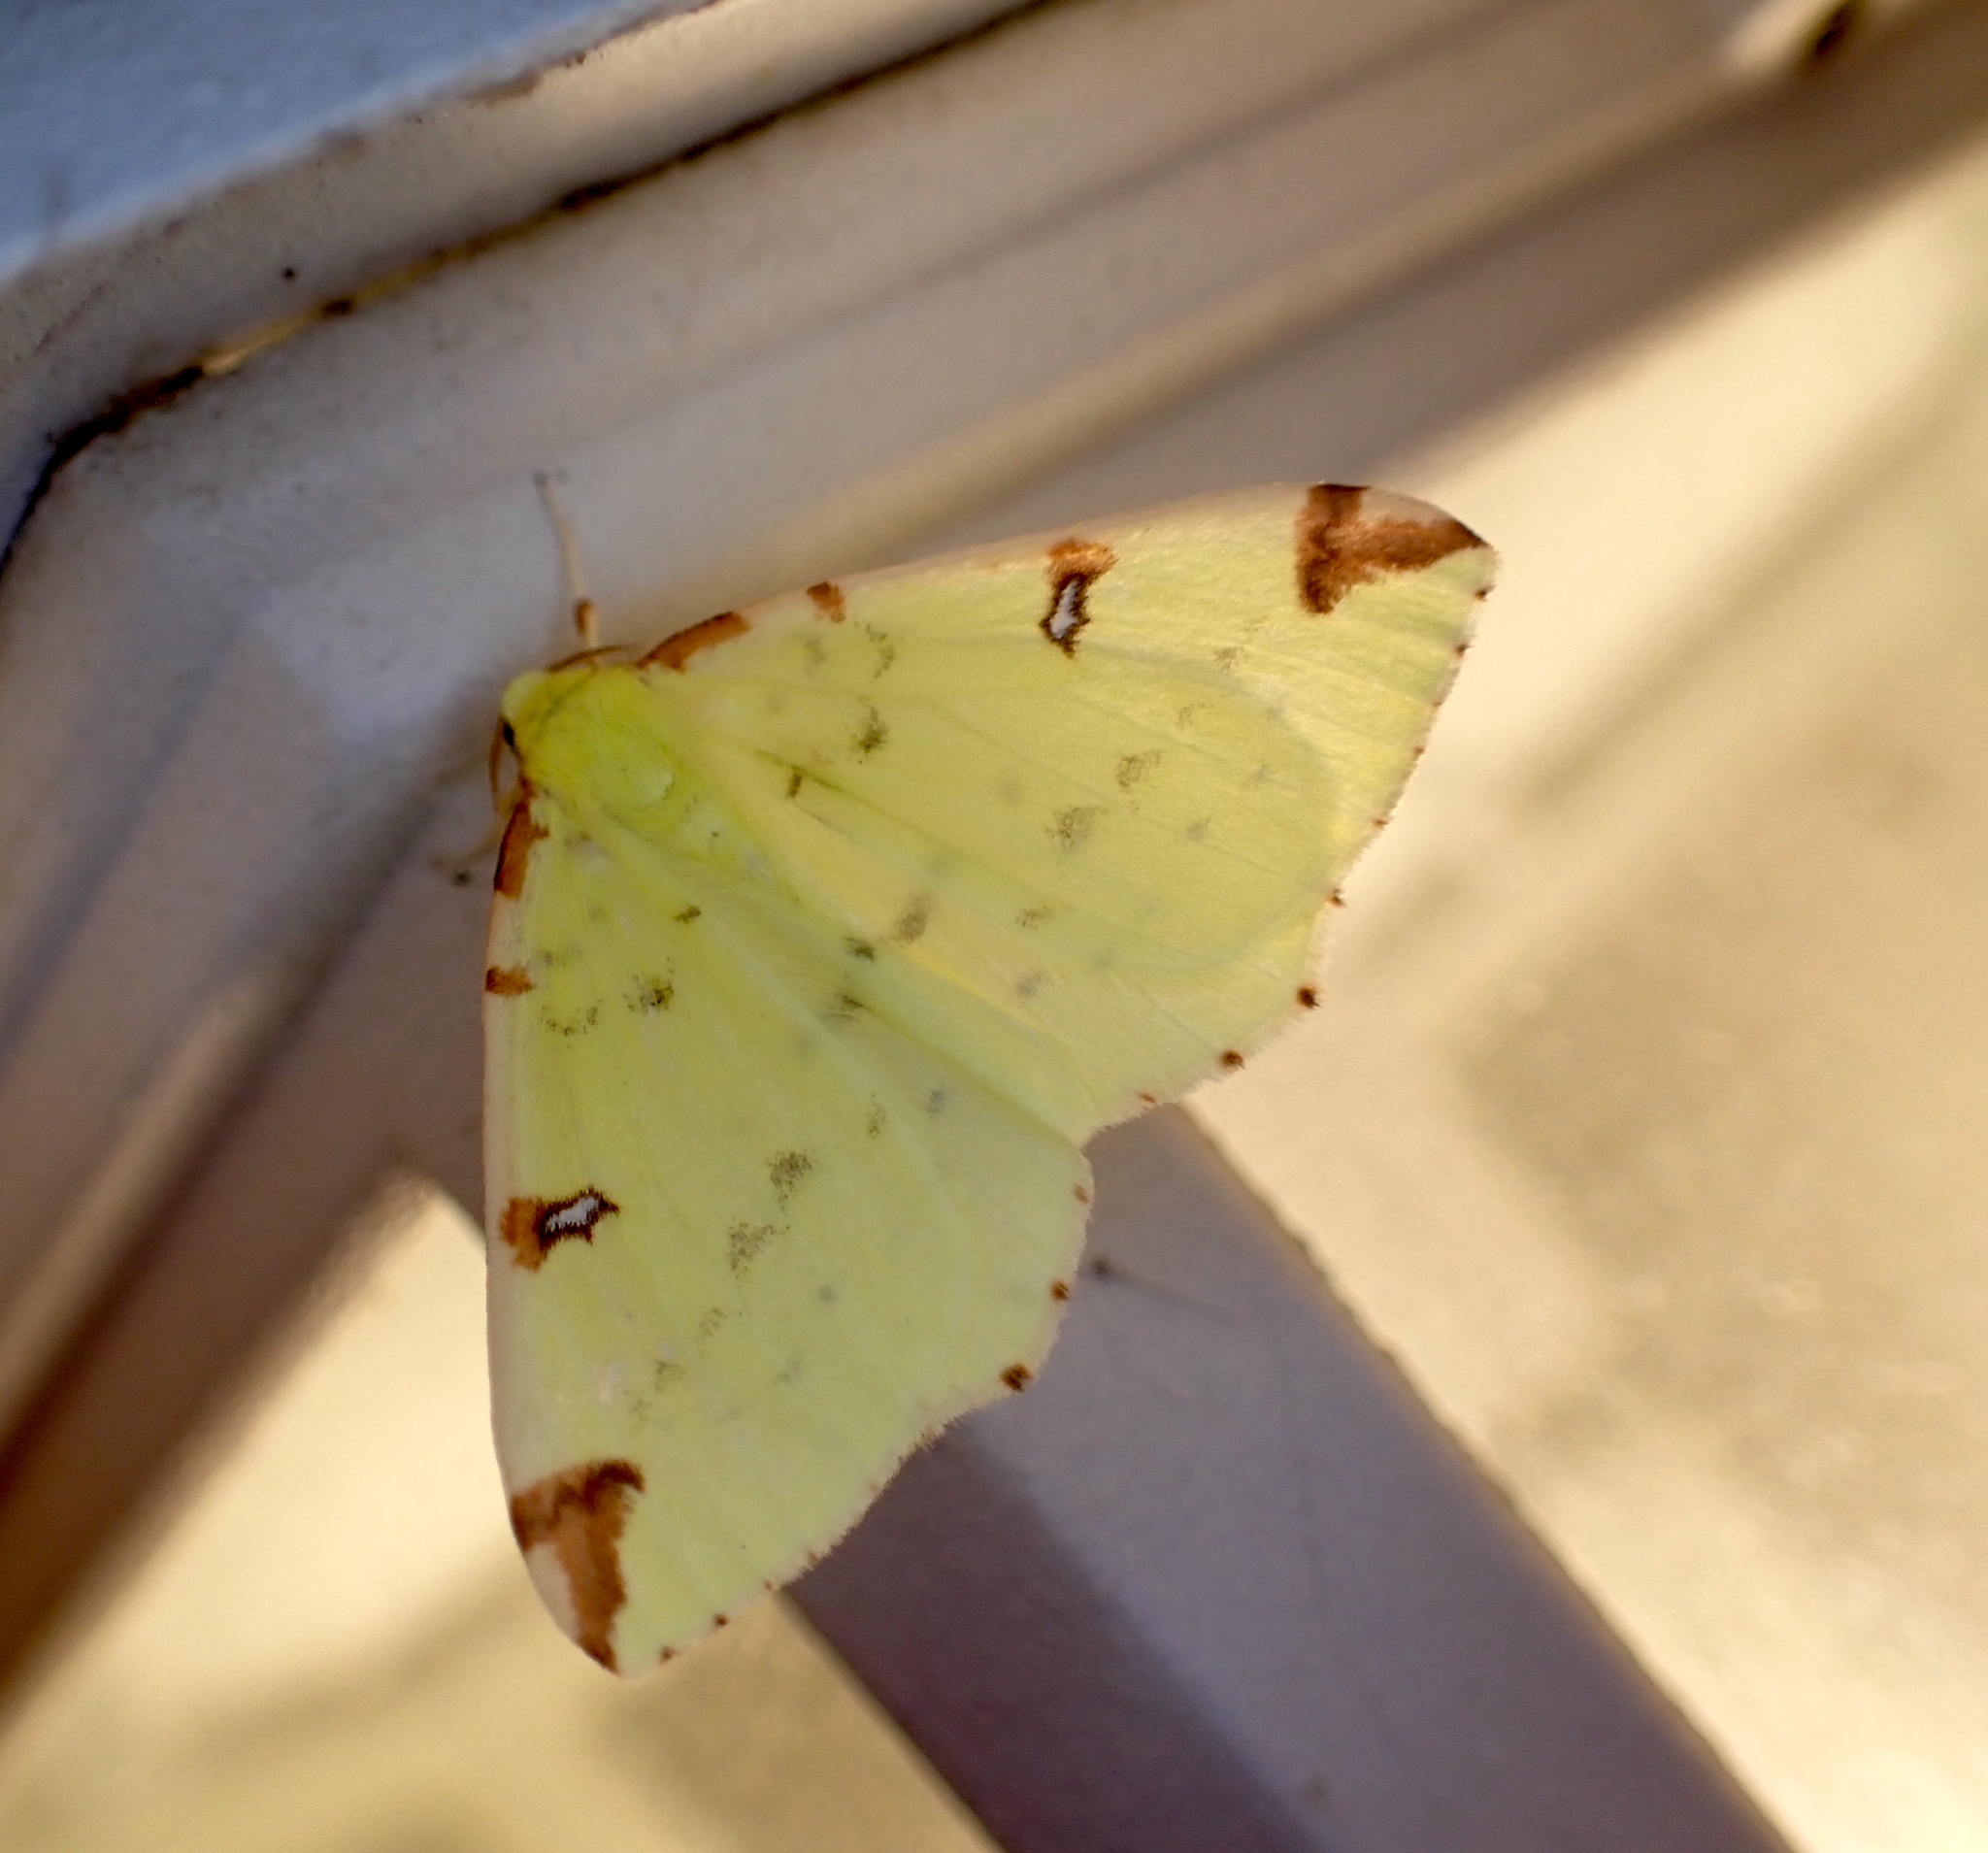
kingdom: Animalia
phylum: Arthropoda
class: Insecta
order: Lepidoptera
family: Geometridae
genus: Opisthograptis
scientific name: Opisthograptis luteolata
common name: Brimstone moth
